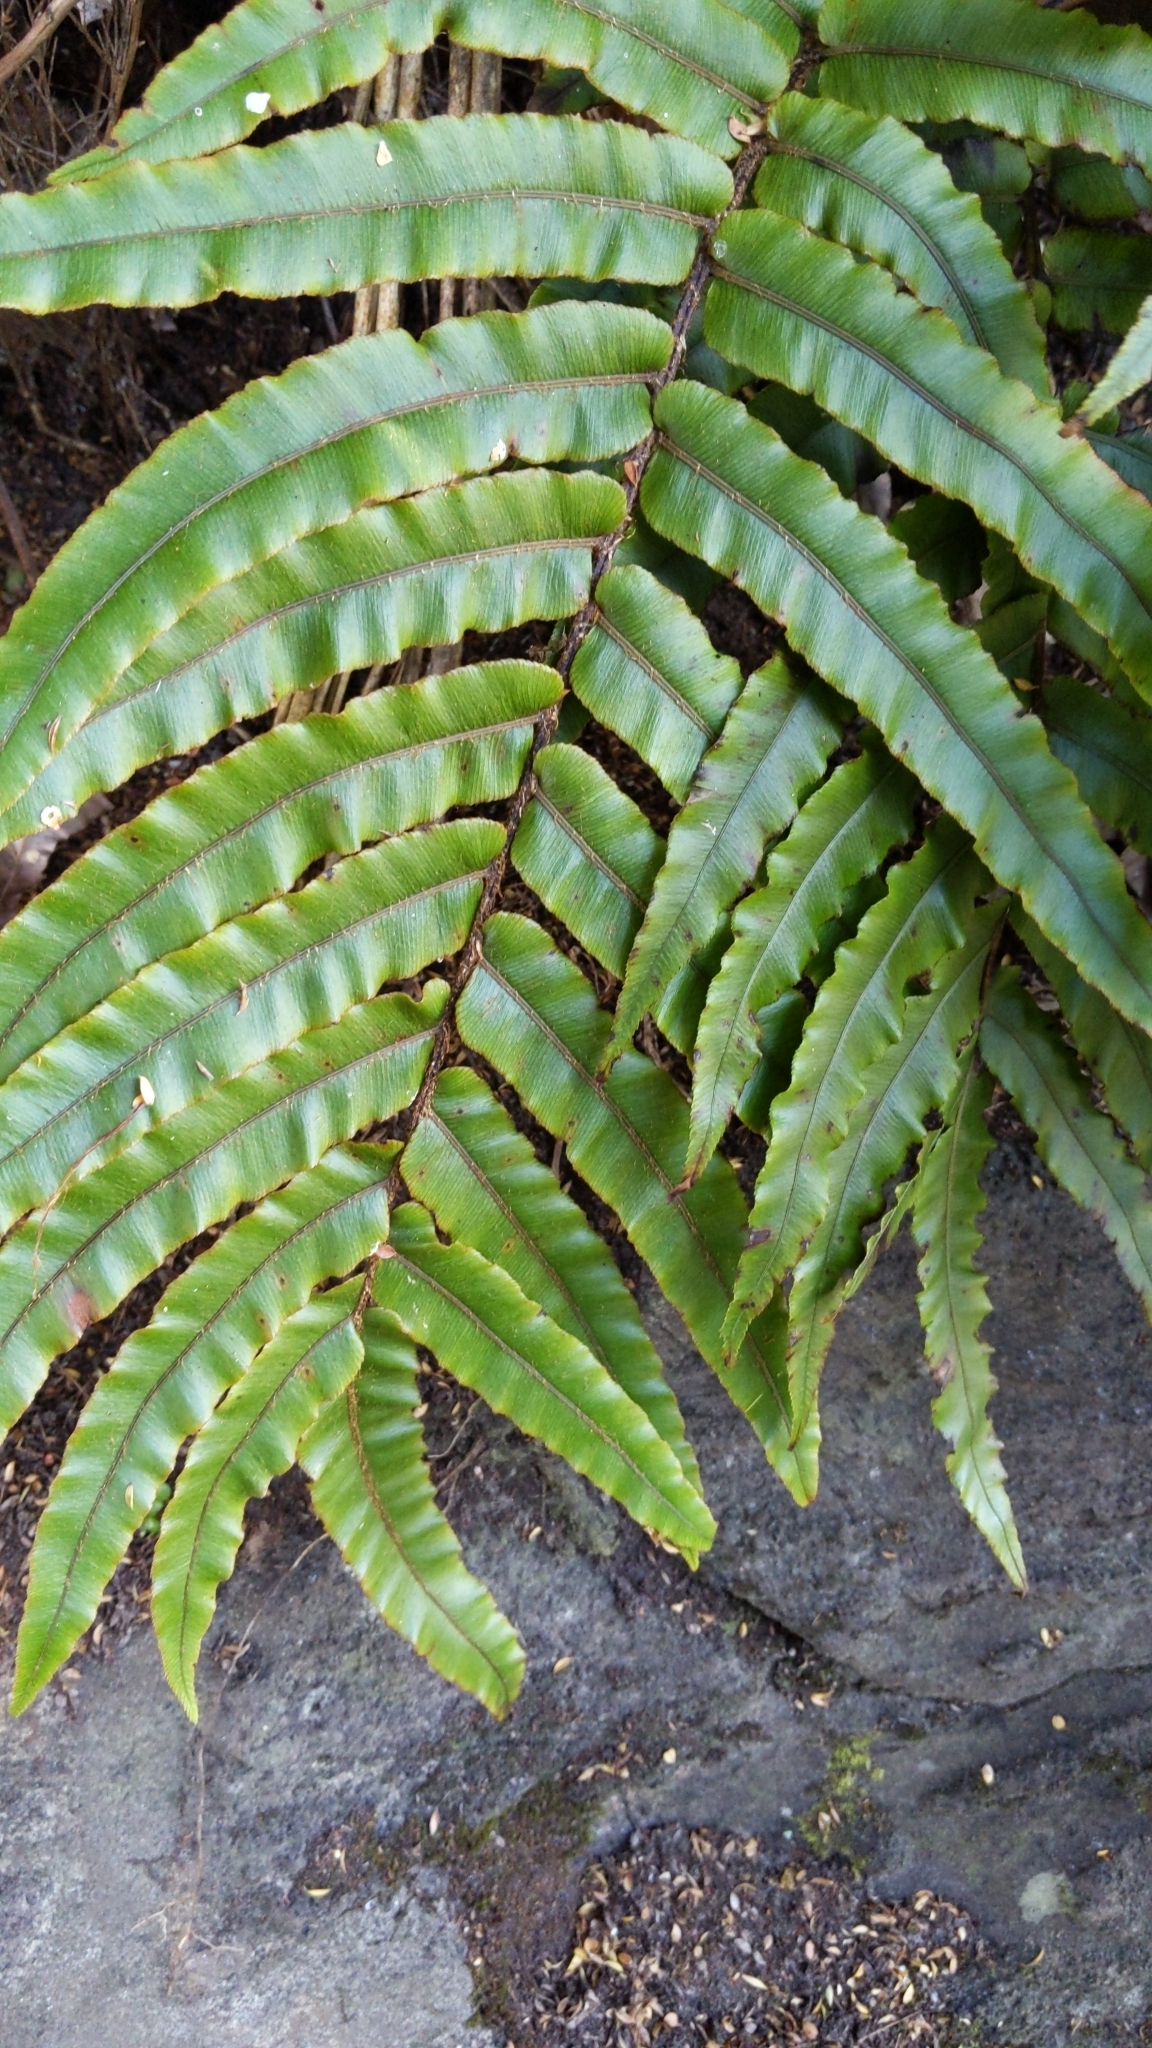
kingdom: Plantae
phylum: Tracheophyta
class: Polypodiopsida
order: Polypodiales
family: Blechnaceae
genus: Parablechnum
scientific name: Parablechnum novae-zelandiae
